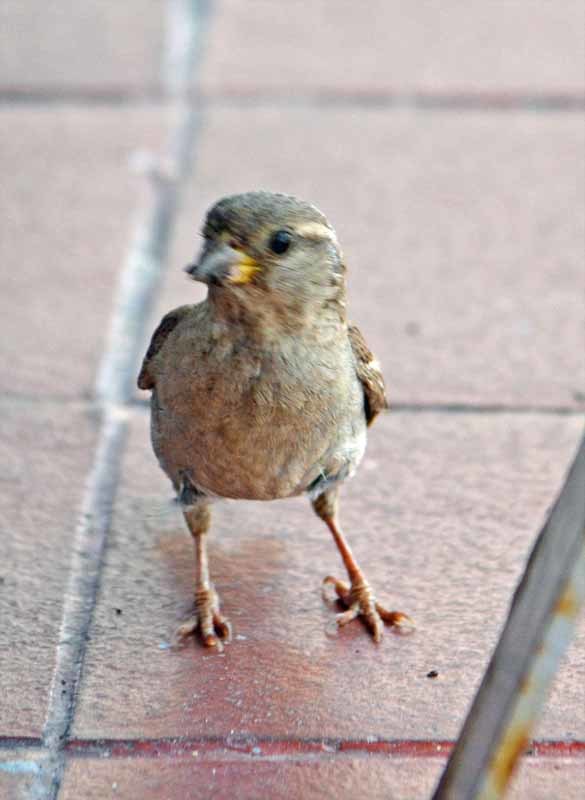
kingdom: Animalia
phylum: Chordata
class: Aves
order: Passeriformes
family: Passeridae
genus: Passer
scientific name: Passer domesticus
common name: House sparrow
